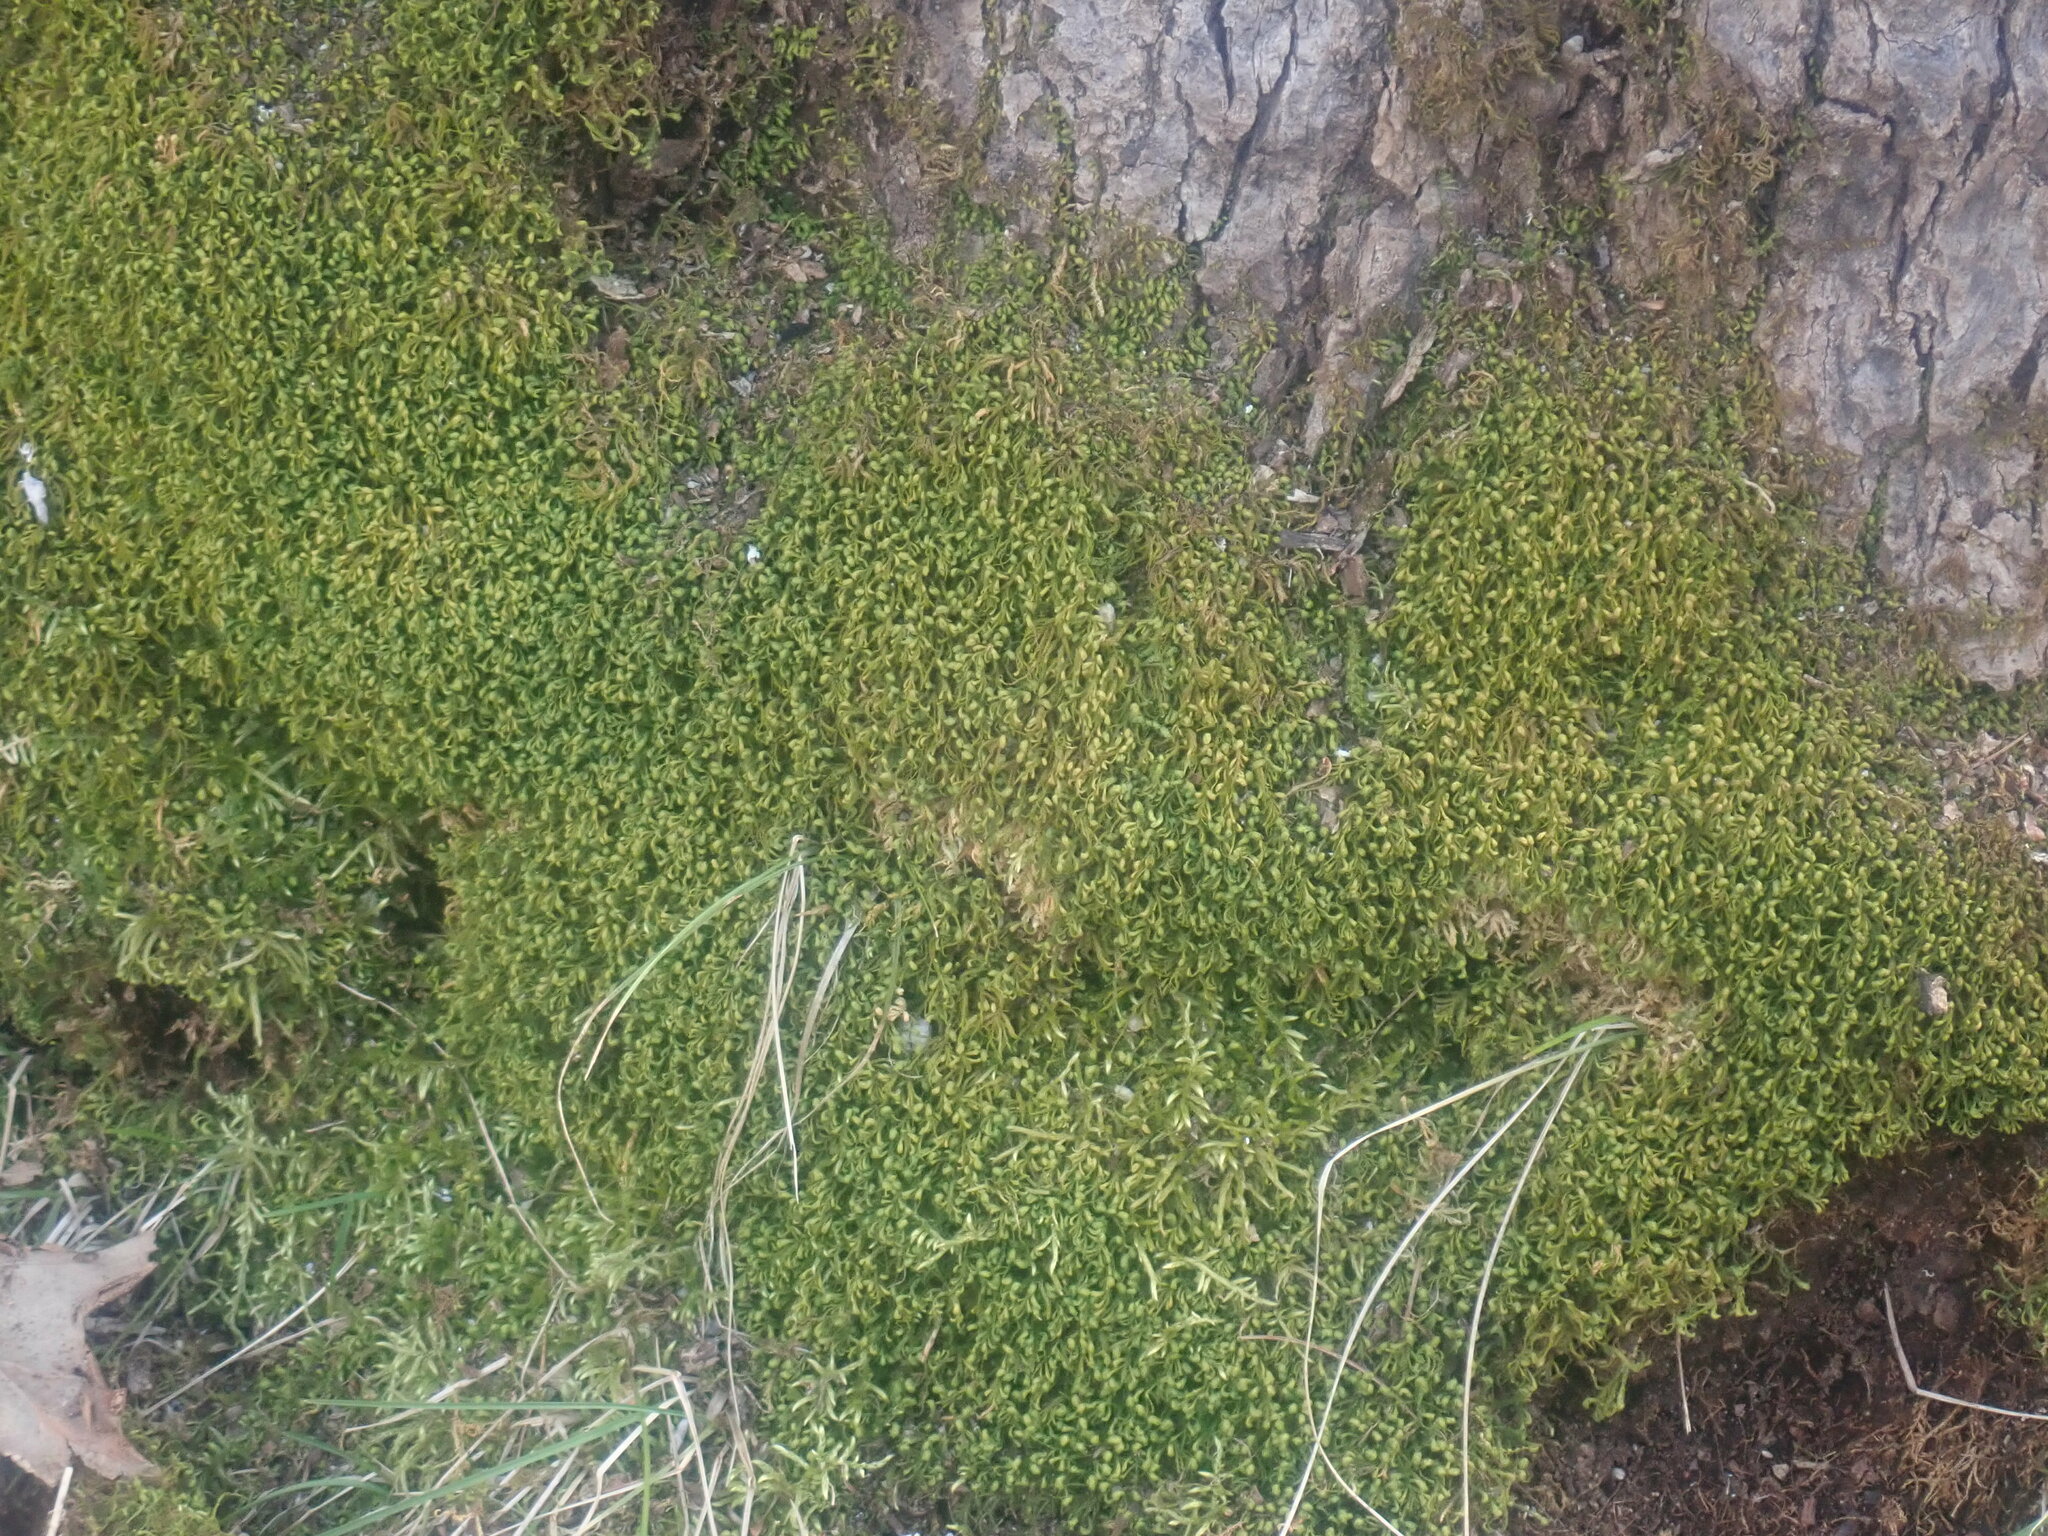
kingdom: Plantae
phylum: Bryophyta
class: Bryopsida
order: Hypnales
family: Neckeraceae
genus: Pseudanomodon
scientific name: Pseudanomodon attenuatus
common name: Tree-skirt moss
